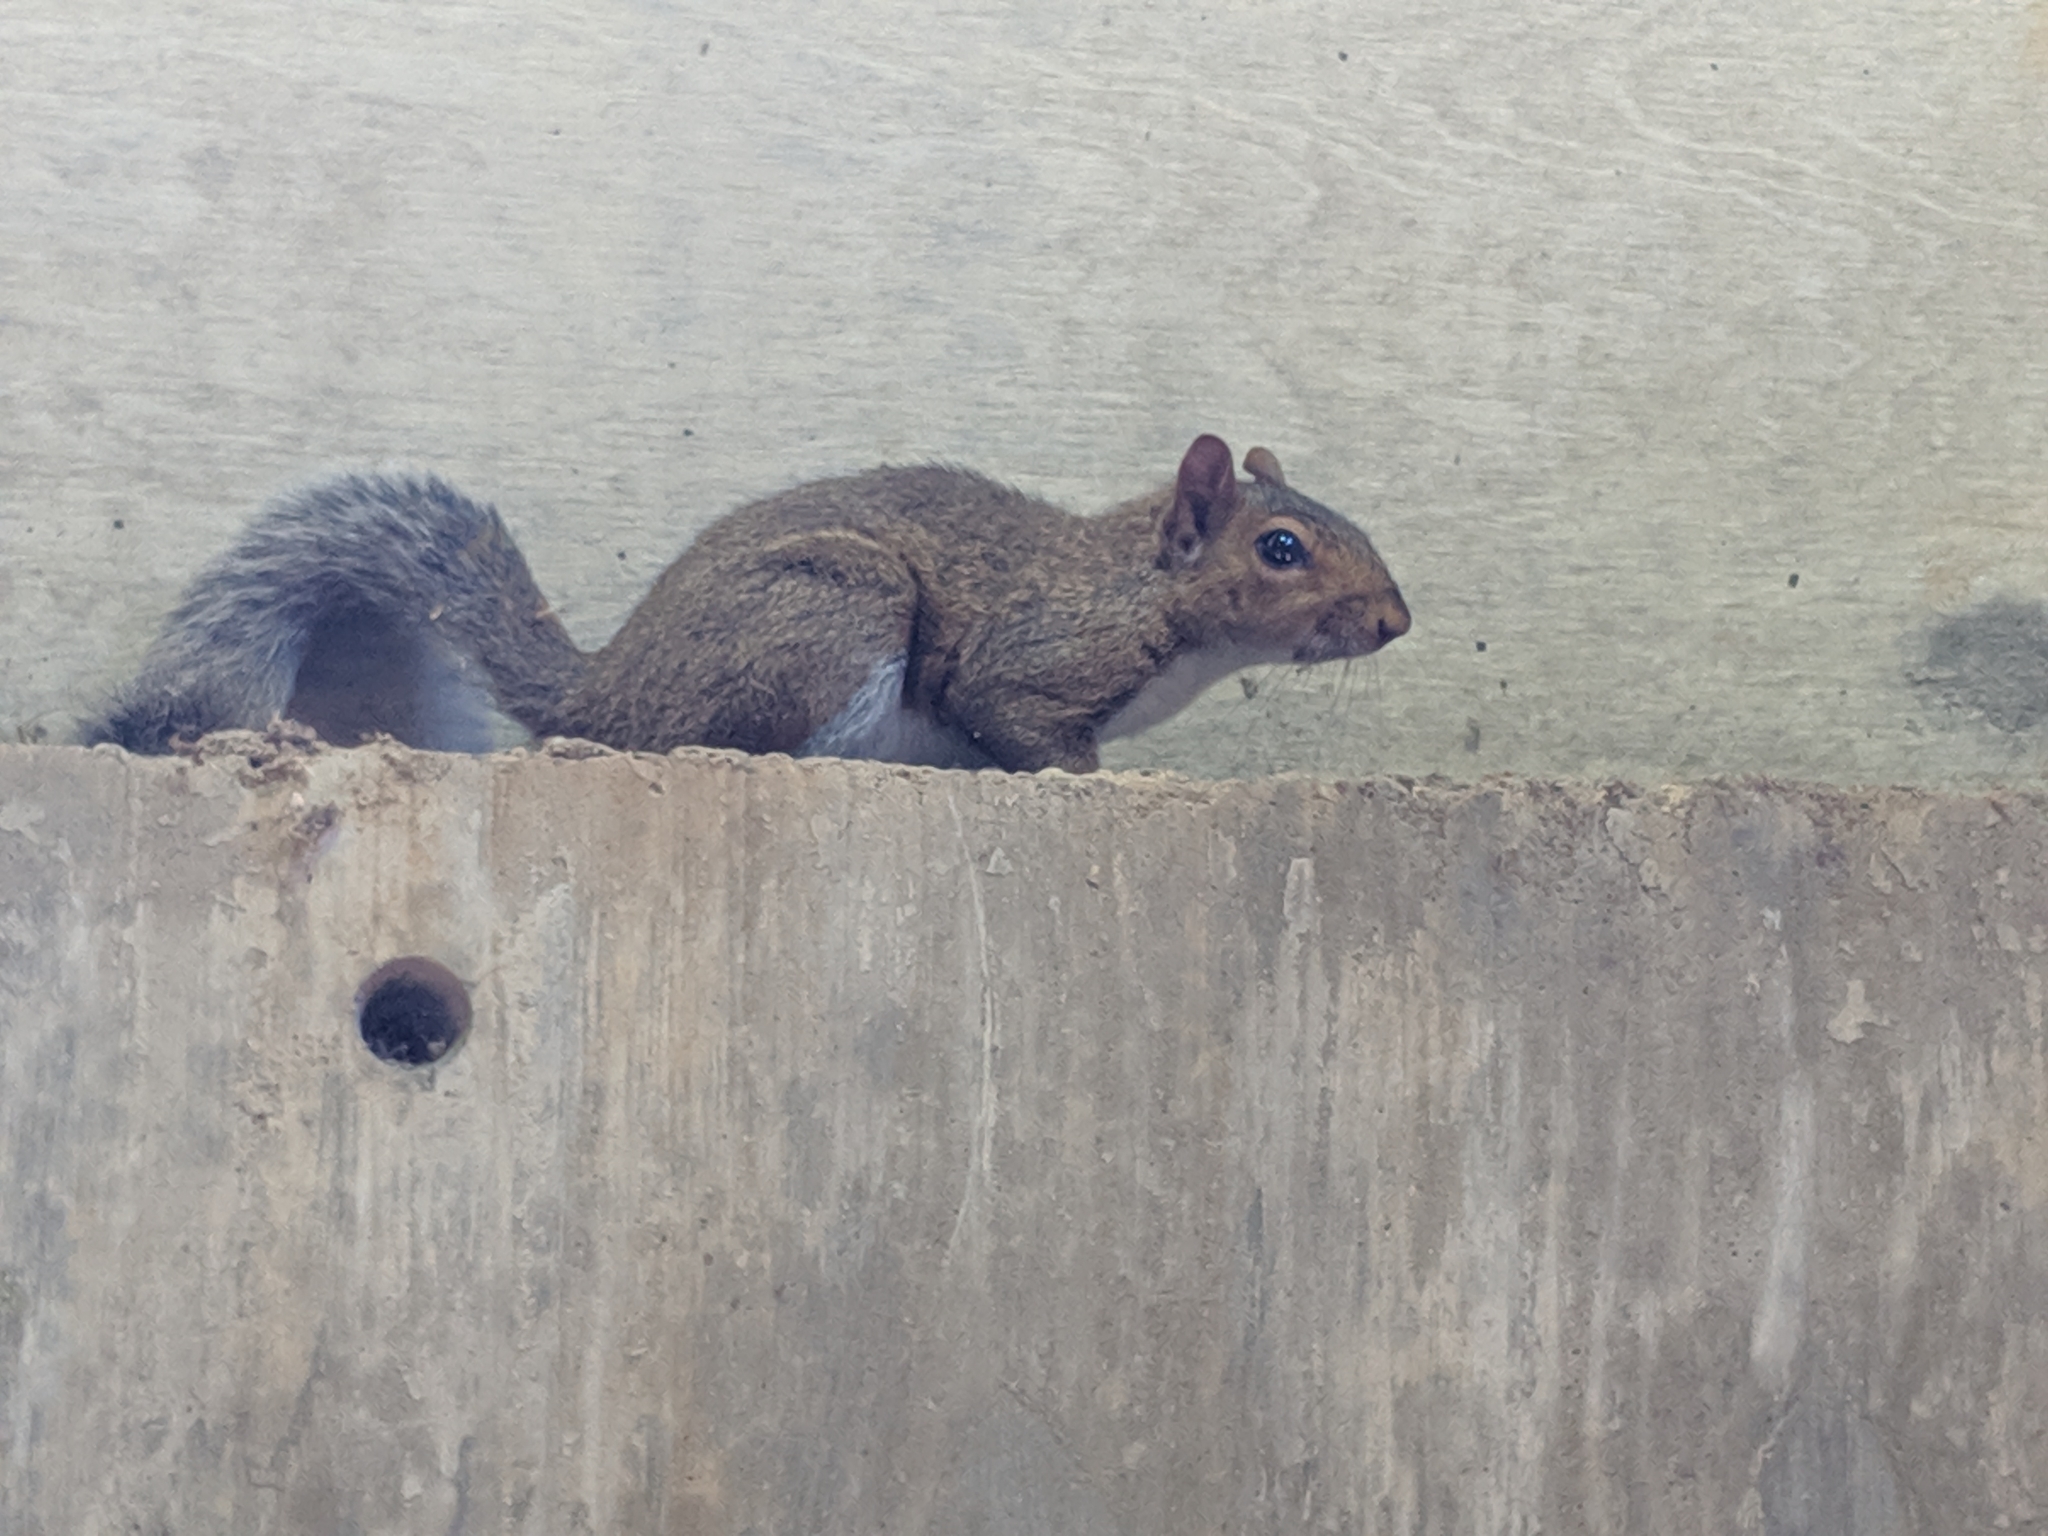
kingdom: Animalia
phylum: Chordata
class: Mammalia
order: Rodentia
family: Sciuridae
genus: Sciurus
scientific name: Sciurus carolinensis
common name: Eastern gray squirrel
